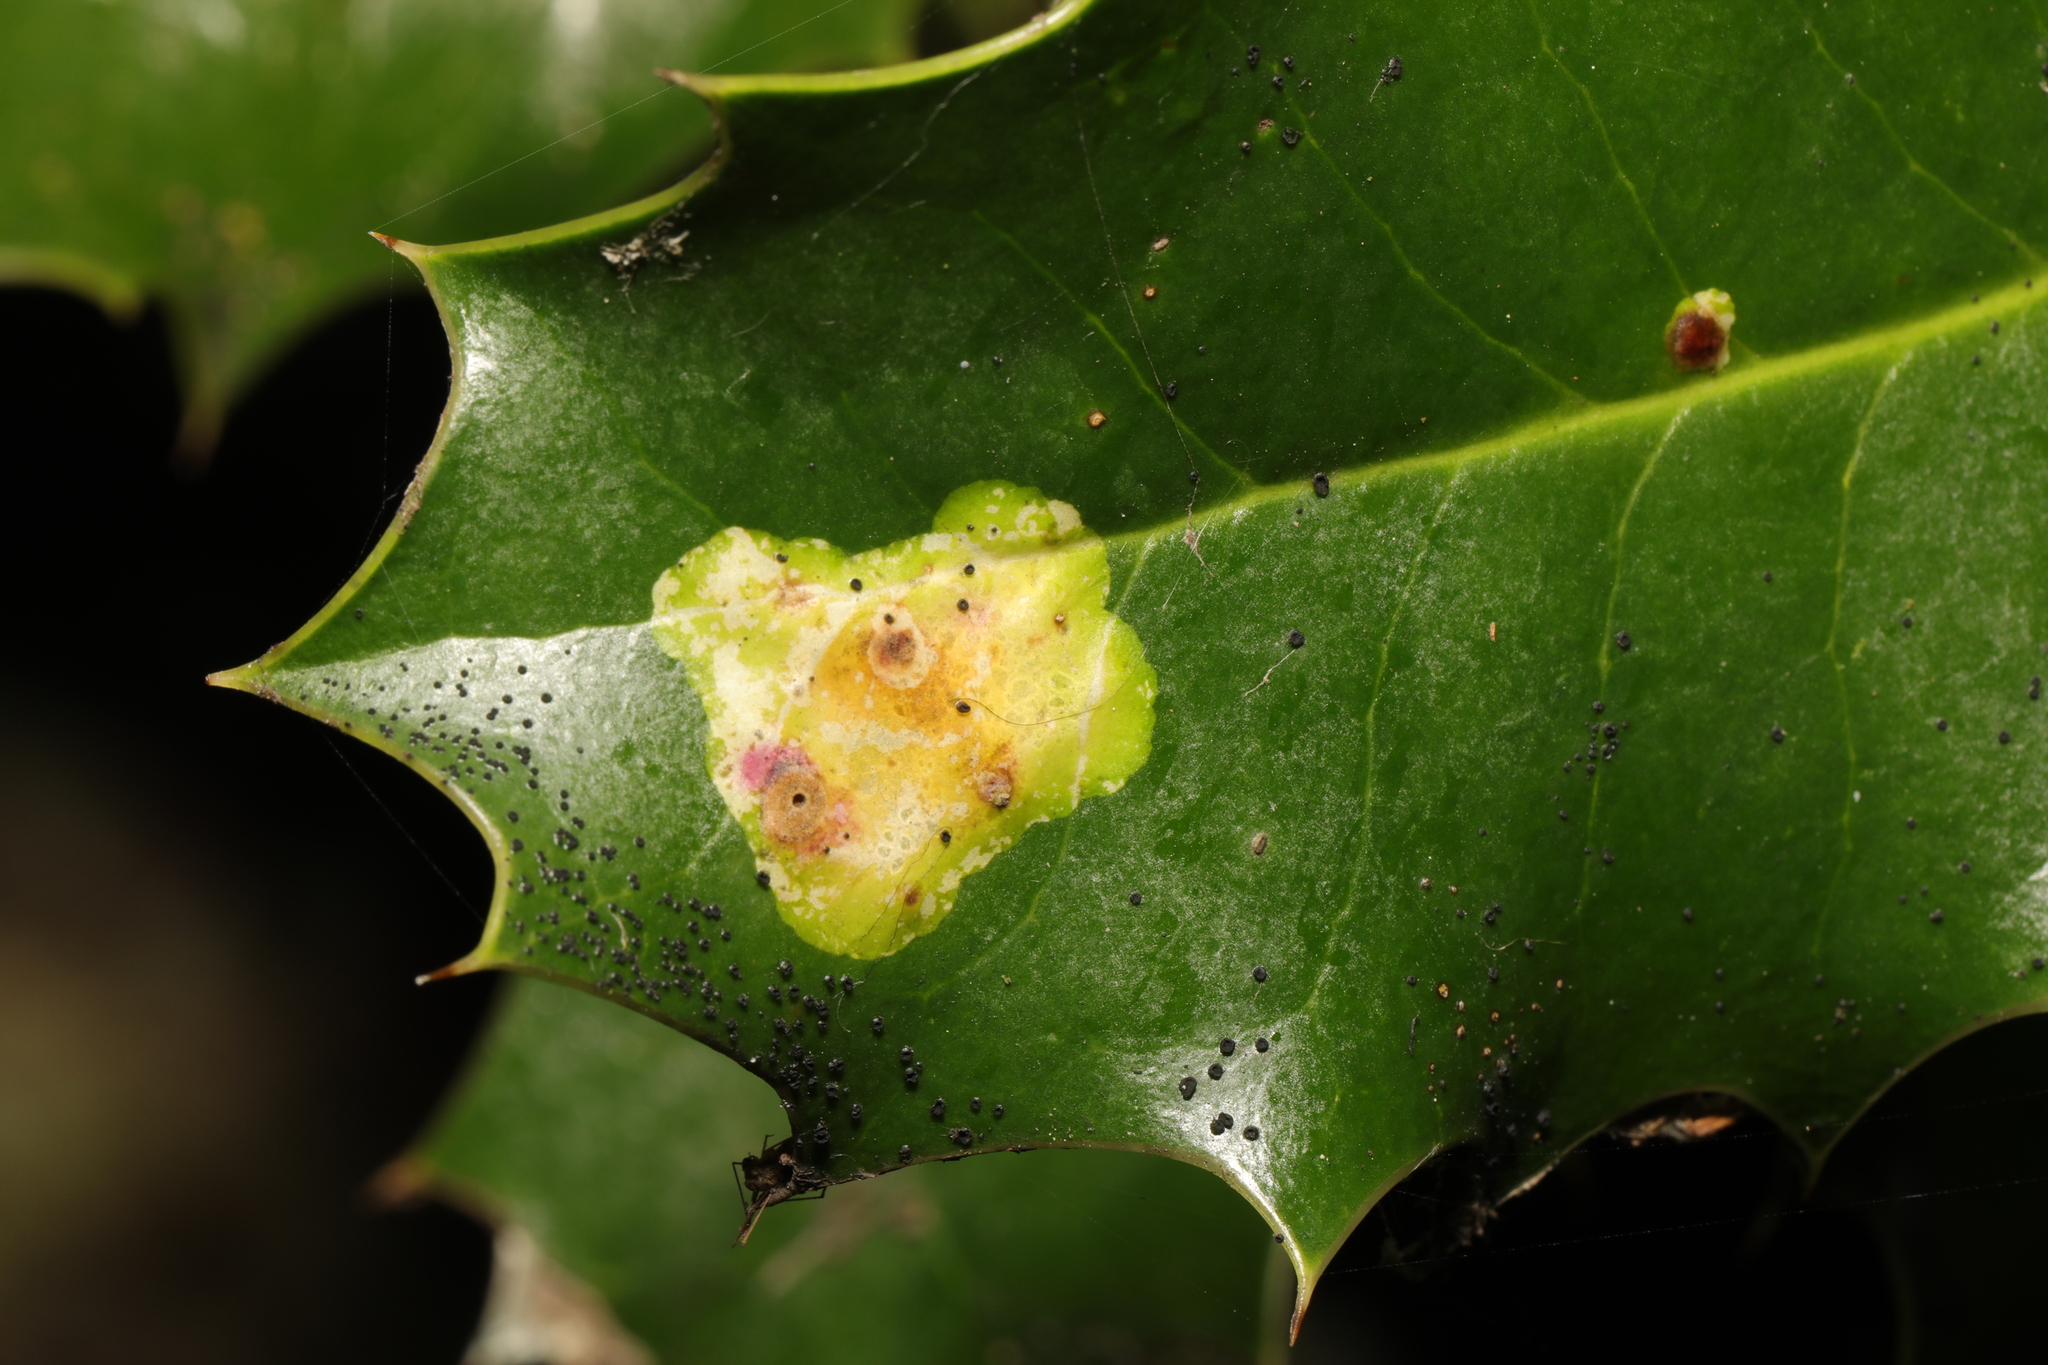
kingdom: Animalia
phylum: Arthropoda
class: Insecta
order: Diptera
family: Agromyzidae
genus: Phytomyza
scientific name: Phytomyza ilicis
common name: Holly leafminer
